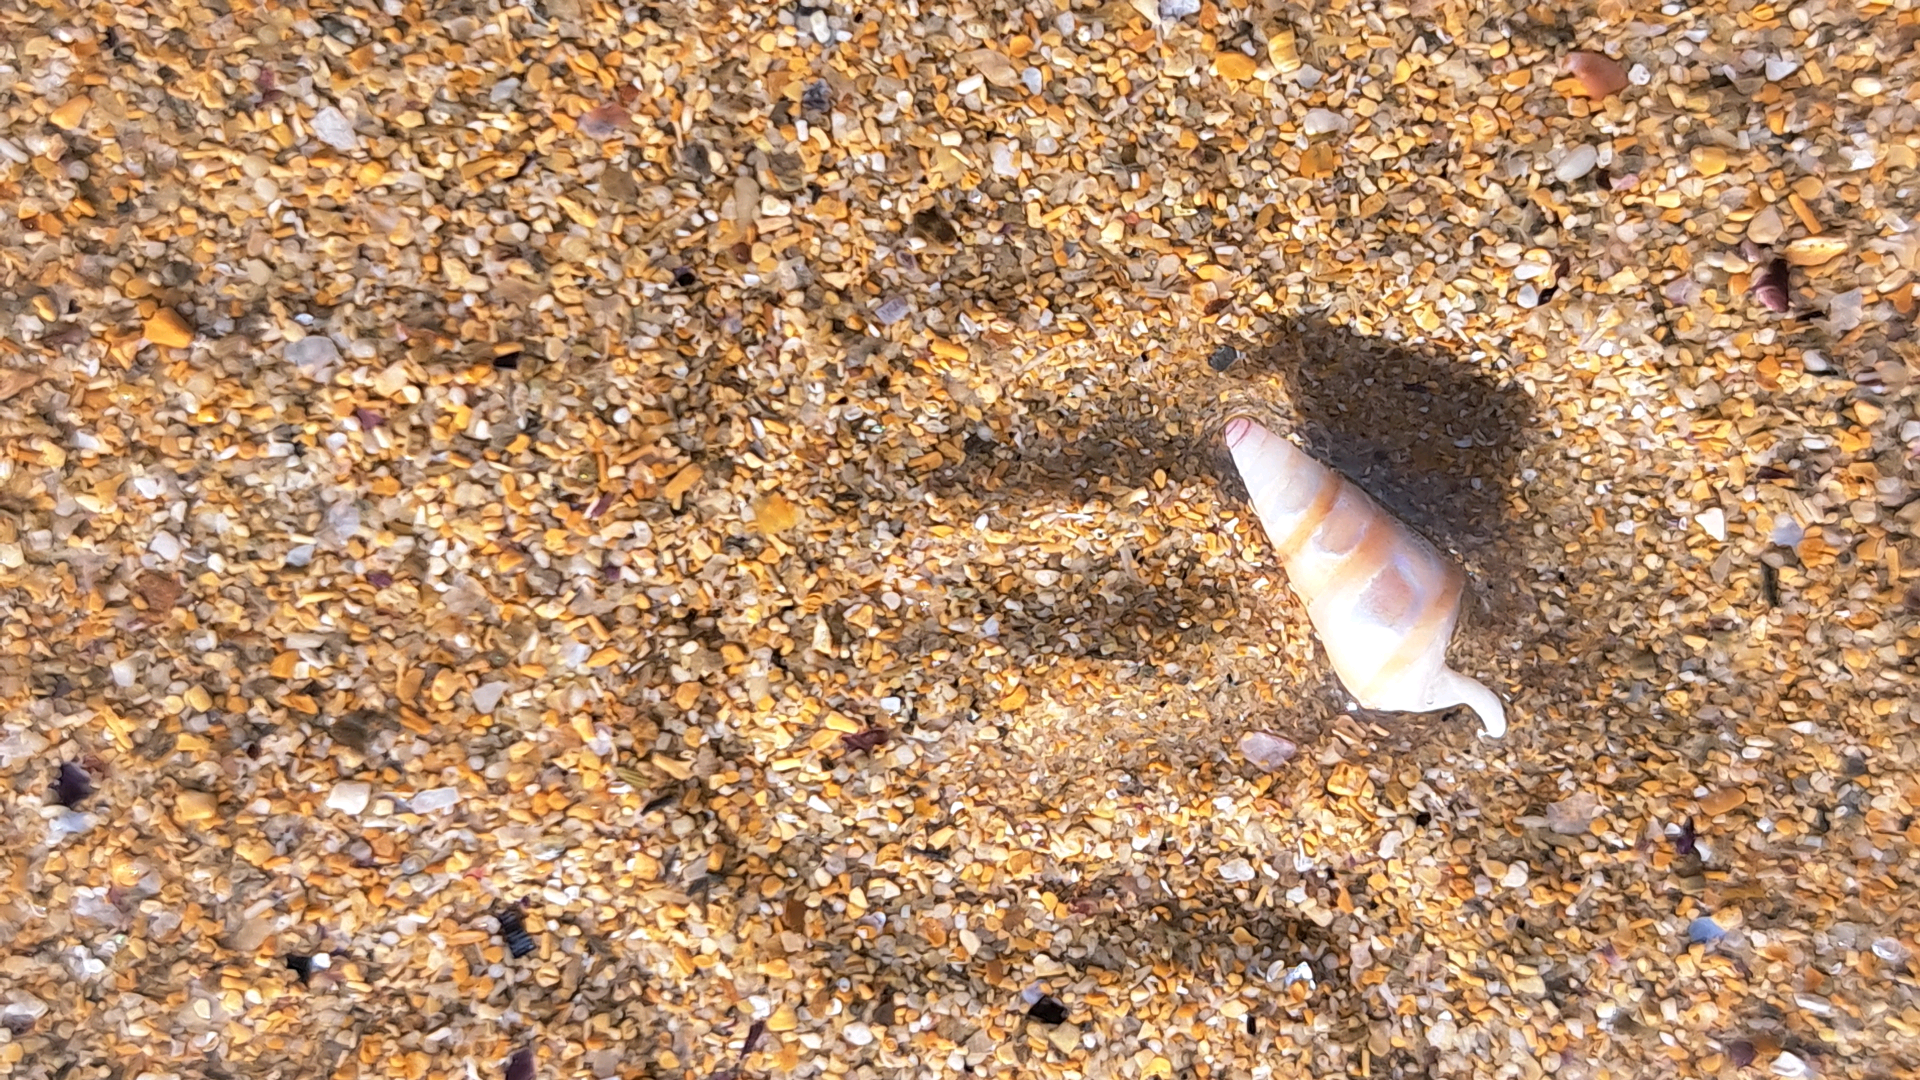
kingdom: Animalia
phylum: Mollusca
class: Gastropoda
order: Trochida
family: Trochidae
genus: Bankivia
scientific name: Bankivia fasciata
